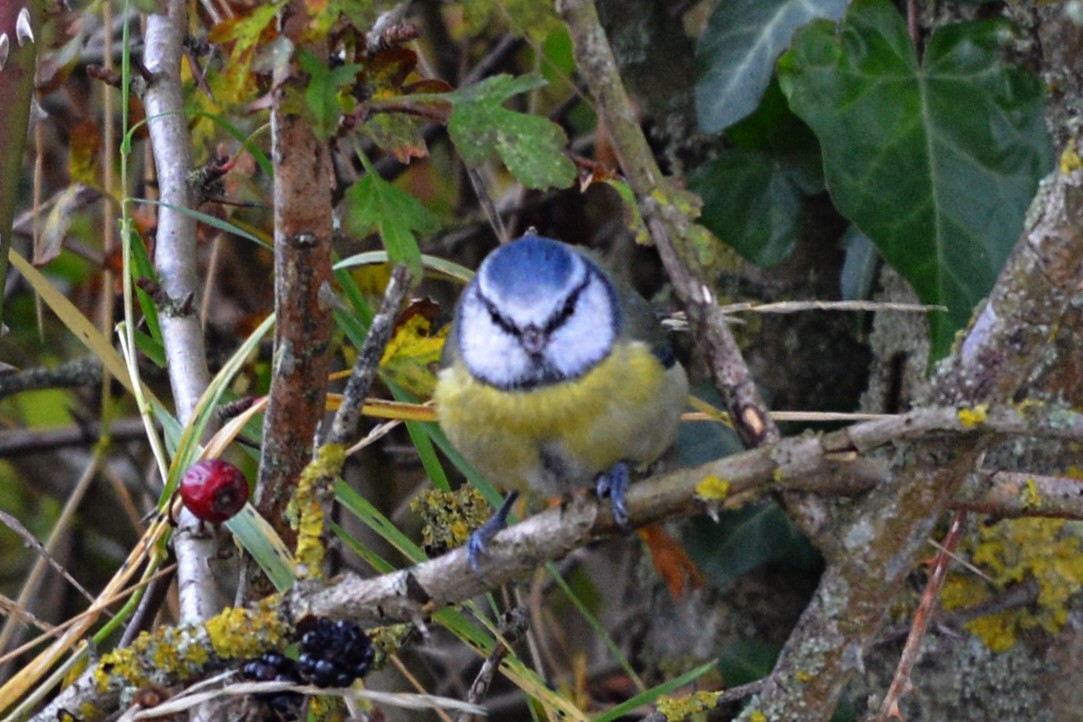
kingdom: Animalia
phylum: Chordata
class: Aves
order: Passeriformes
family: Paridae
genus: Cyanistes
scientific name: Cyanistes caeruleus
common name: Eurasian blue tit
